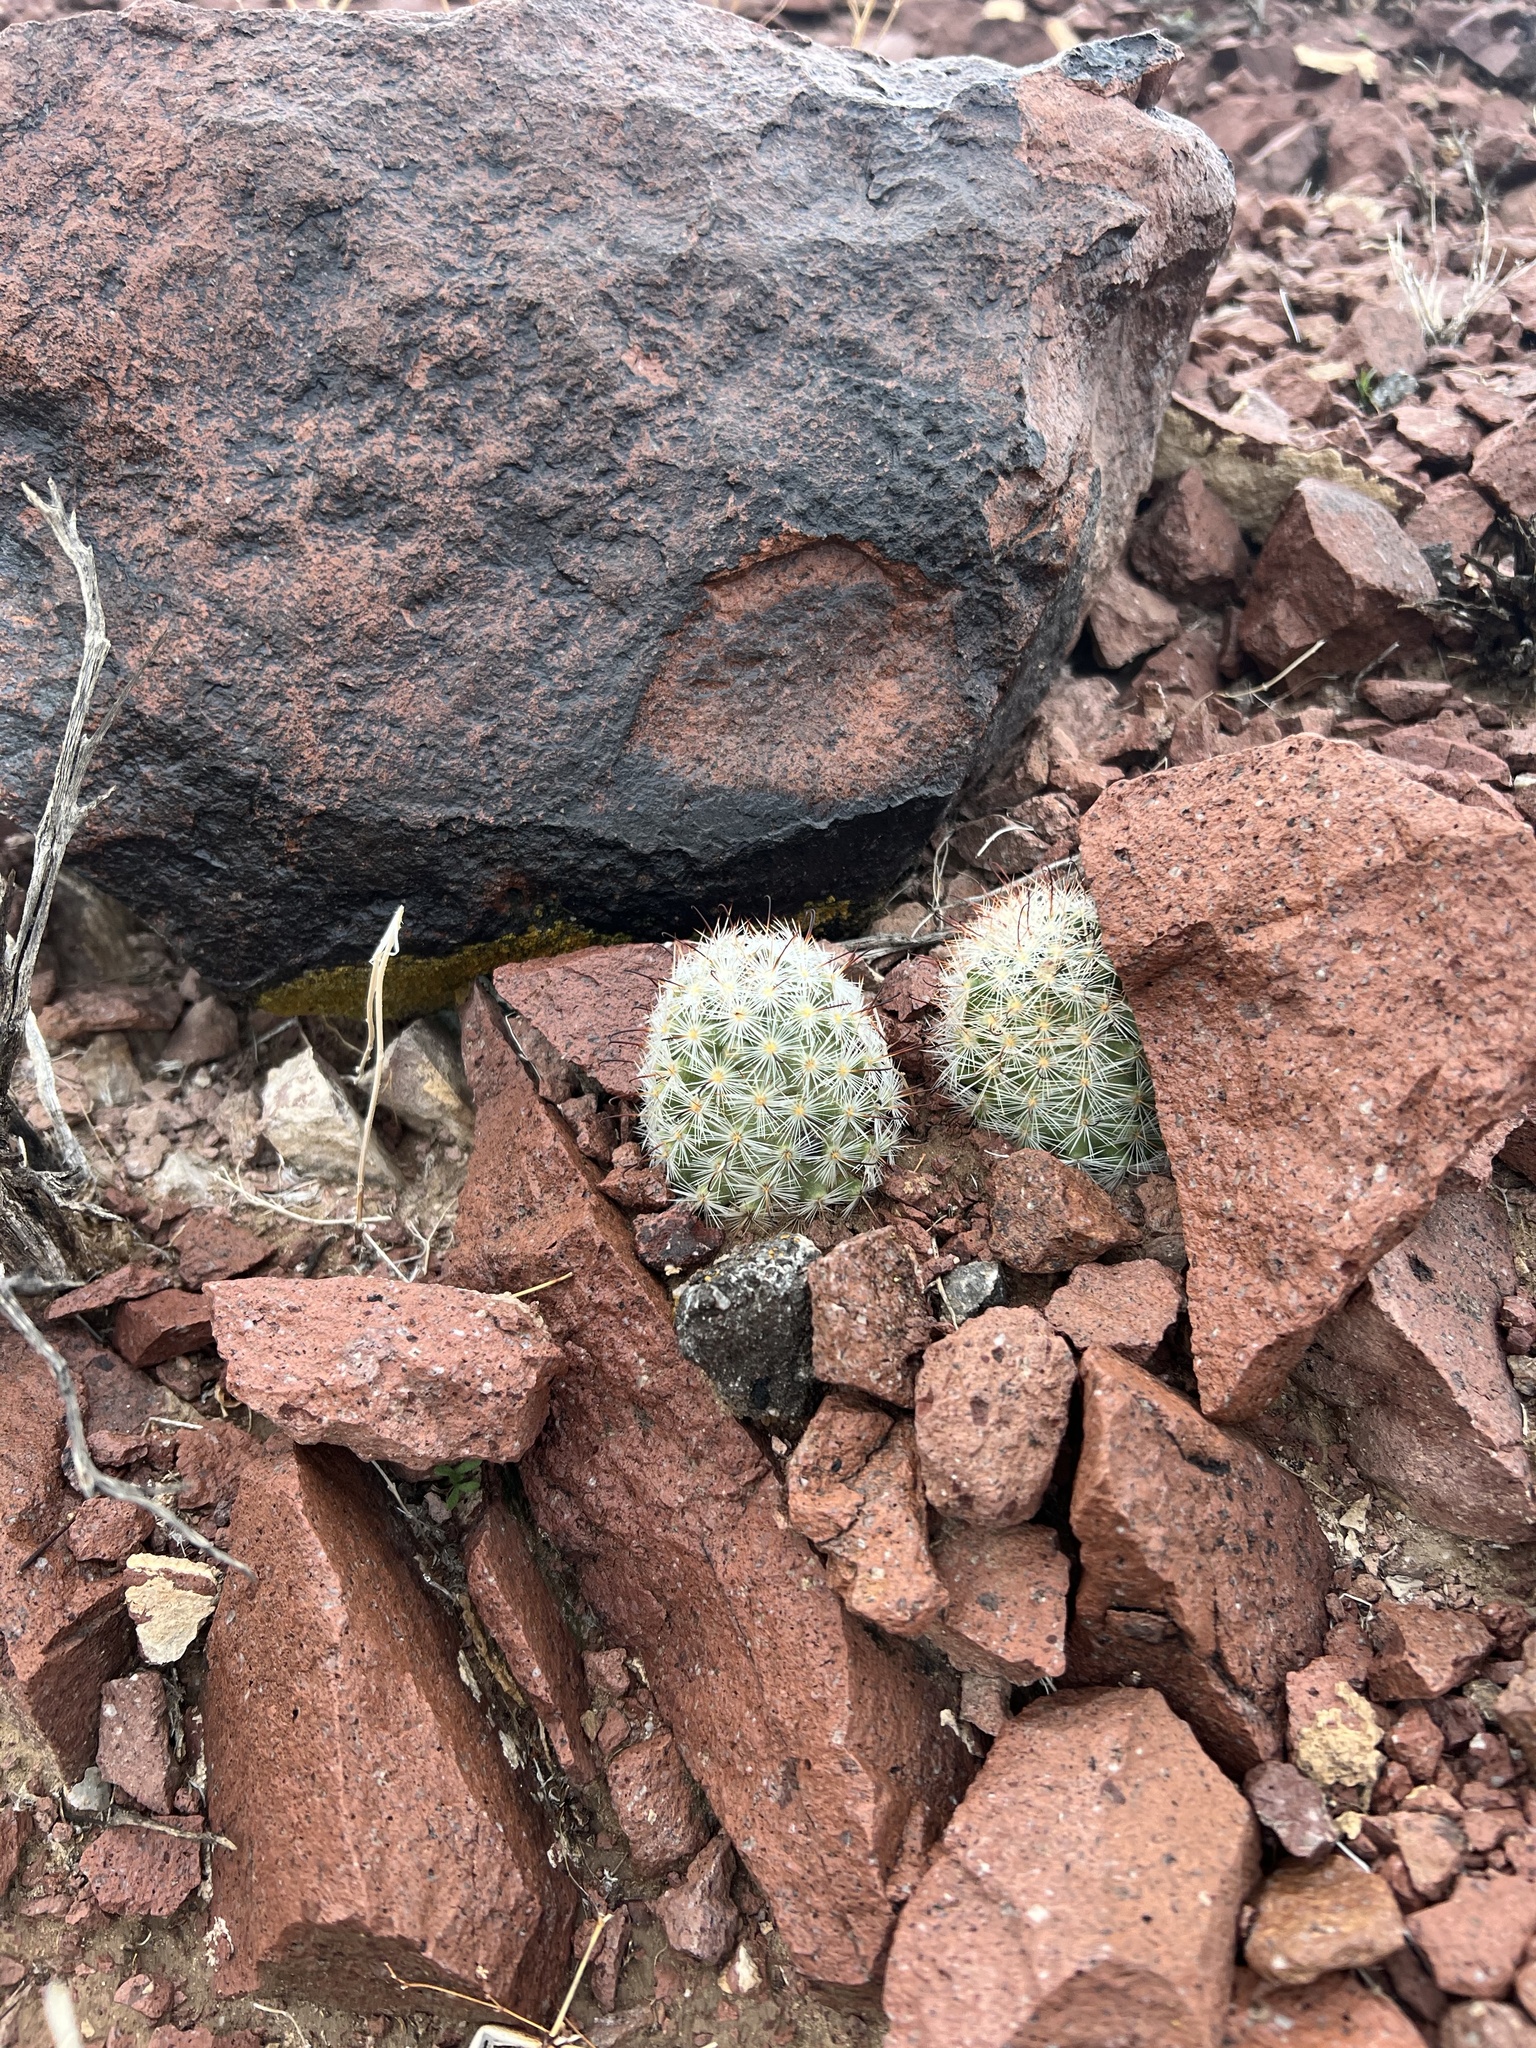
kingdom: Plantae
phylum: Tracheophyta
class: Magnoliopsida
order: Caryophyllales
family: Cactaceae
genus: Cochemiea
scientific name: Cochemiea tetrancistra
